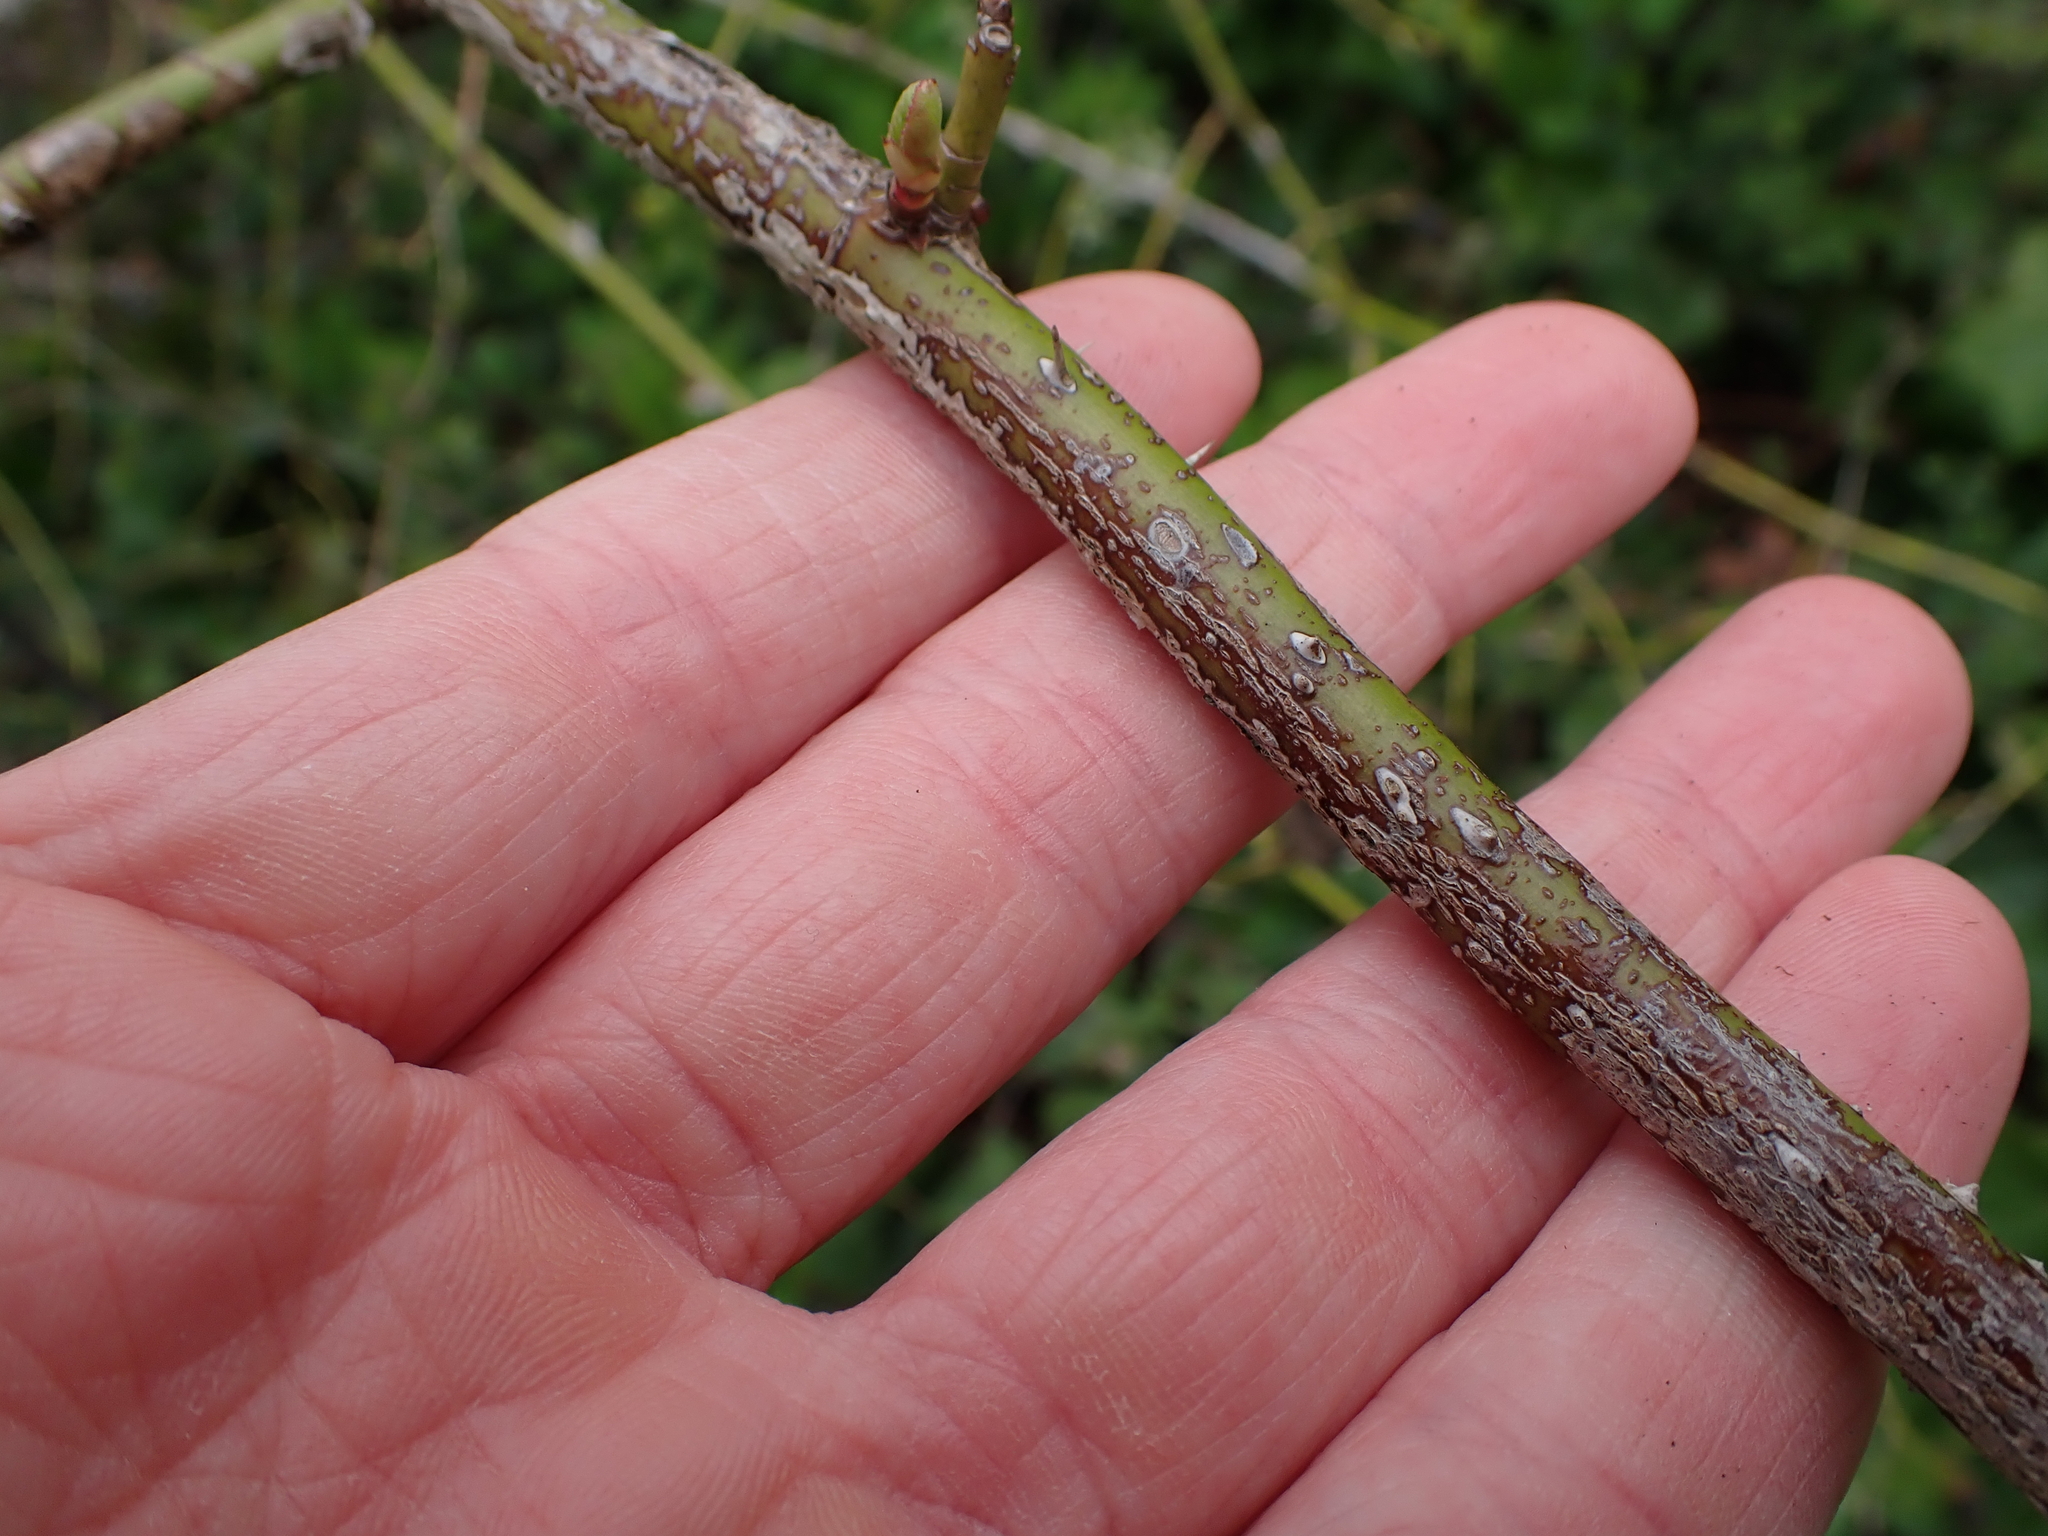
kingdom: Animalia
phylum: Arthropoda
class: Insecta
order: Hymenoptera
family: Cynipidae
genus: Diplolepis
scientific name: Diplolepis rosae
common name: Bedeguar gall
